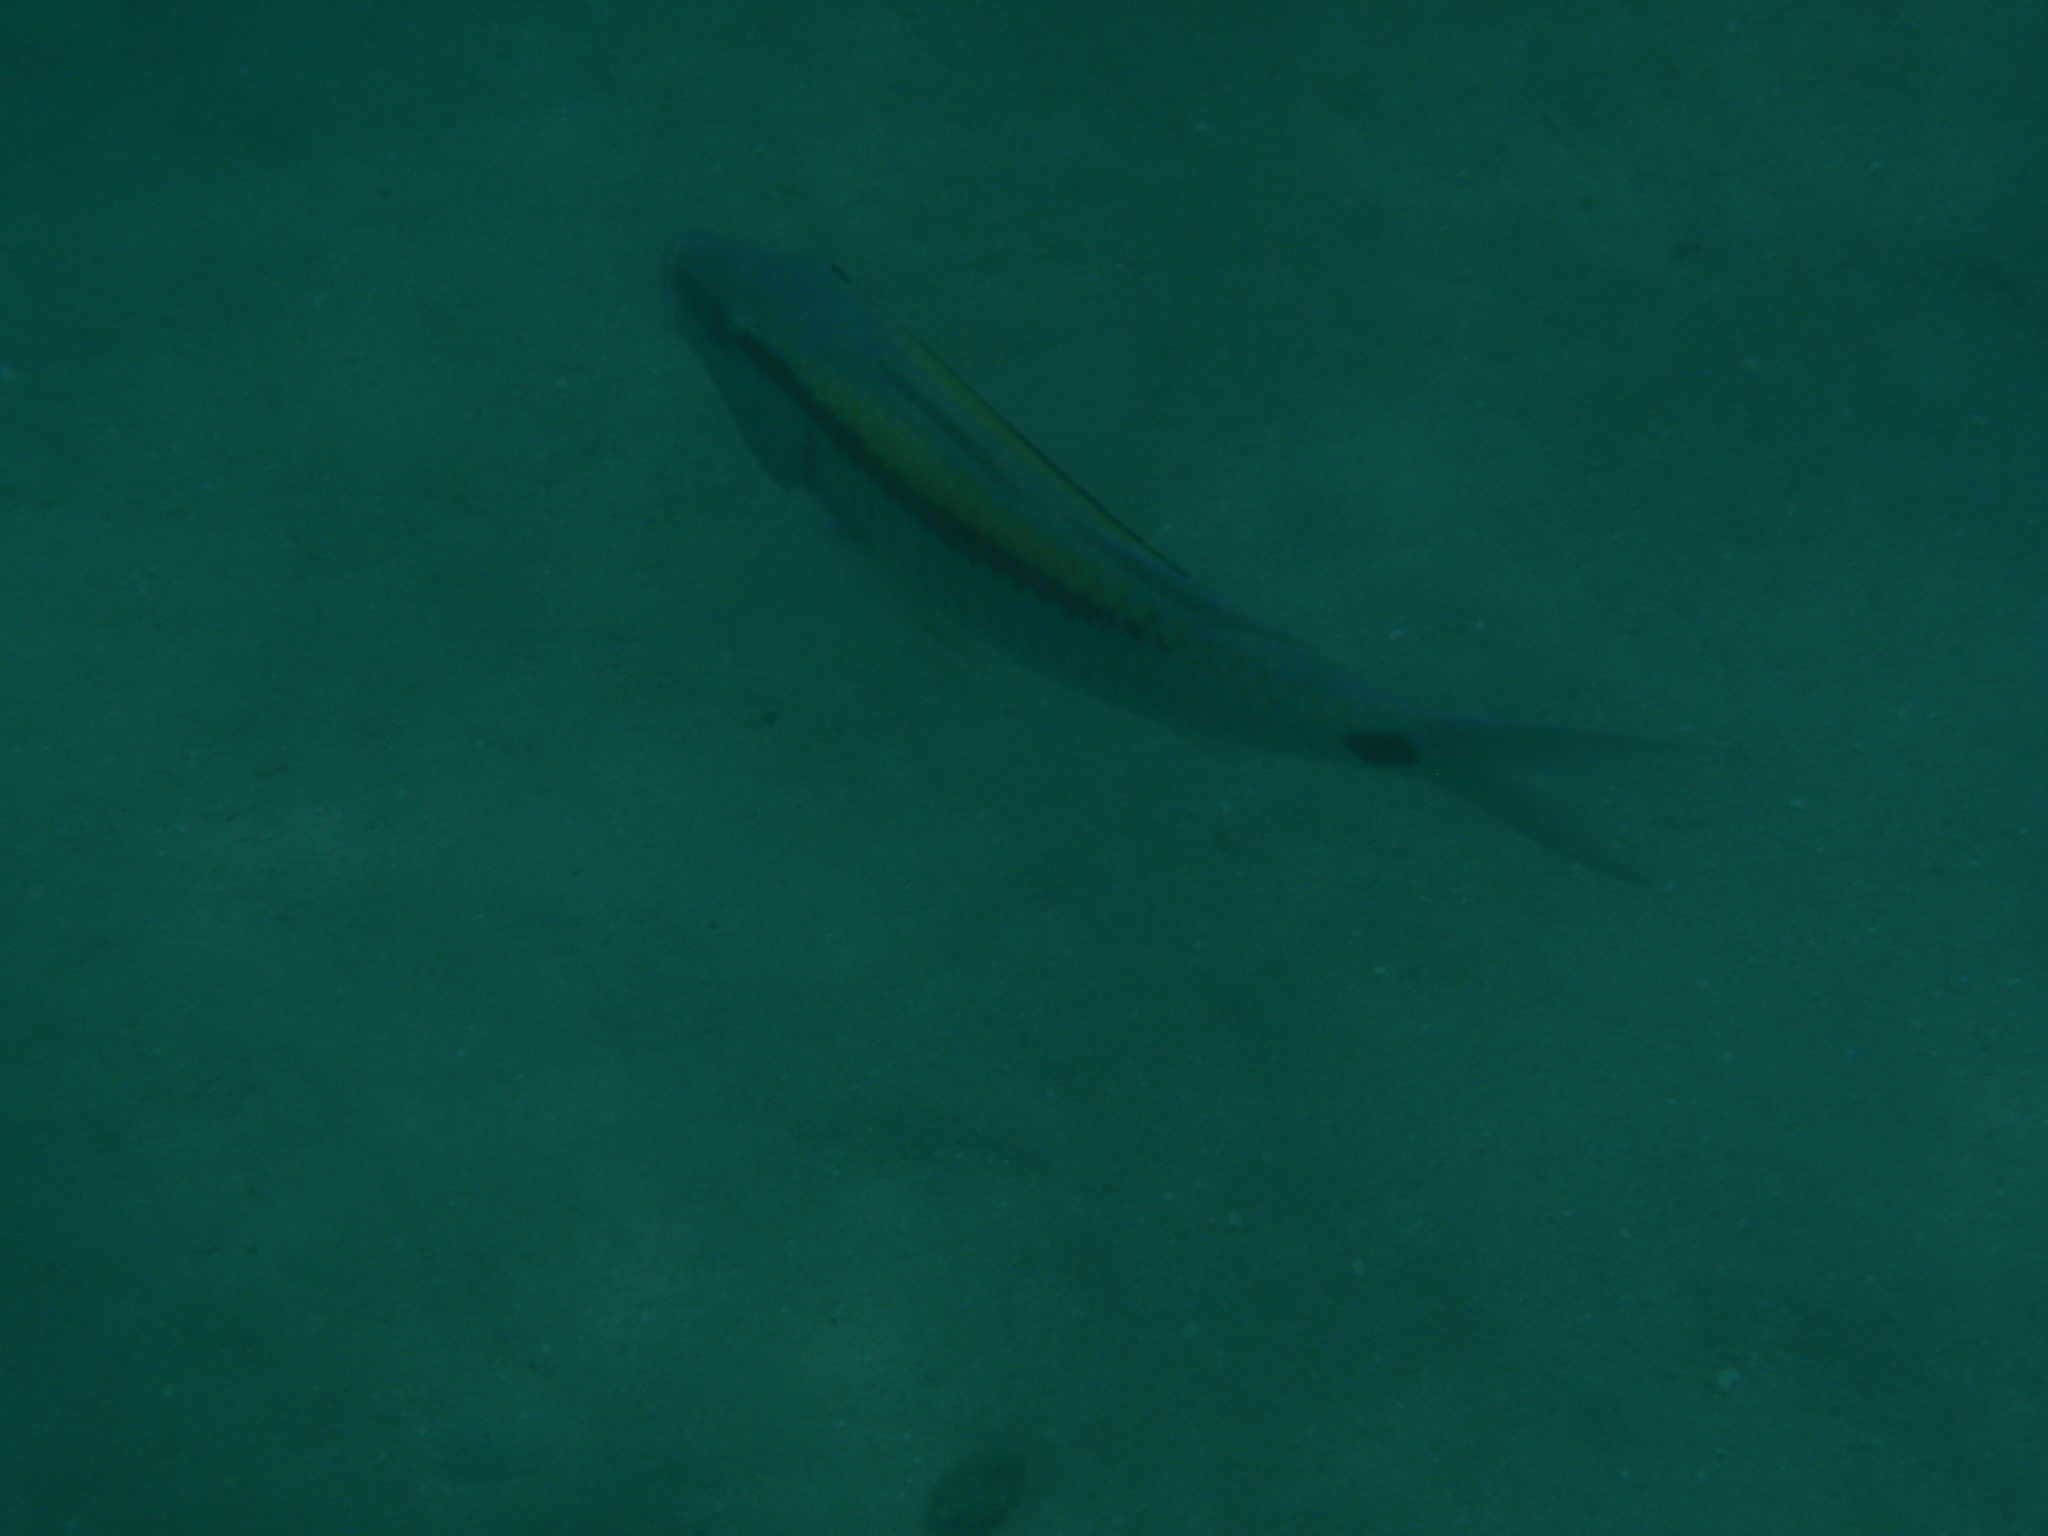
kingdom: Animalia
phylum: Chordata
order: Perciformes
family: Mullidae
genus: Parupeneus
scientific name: Parupeneus barberinus
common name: Dash-and-dot goatfish
